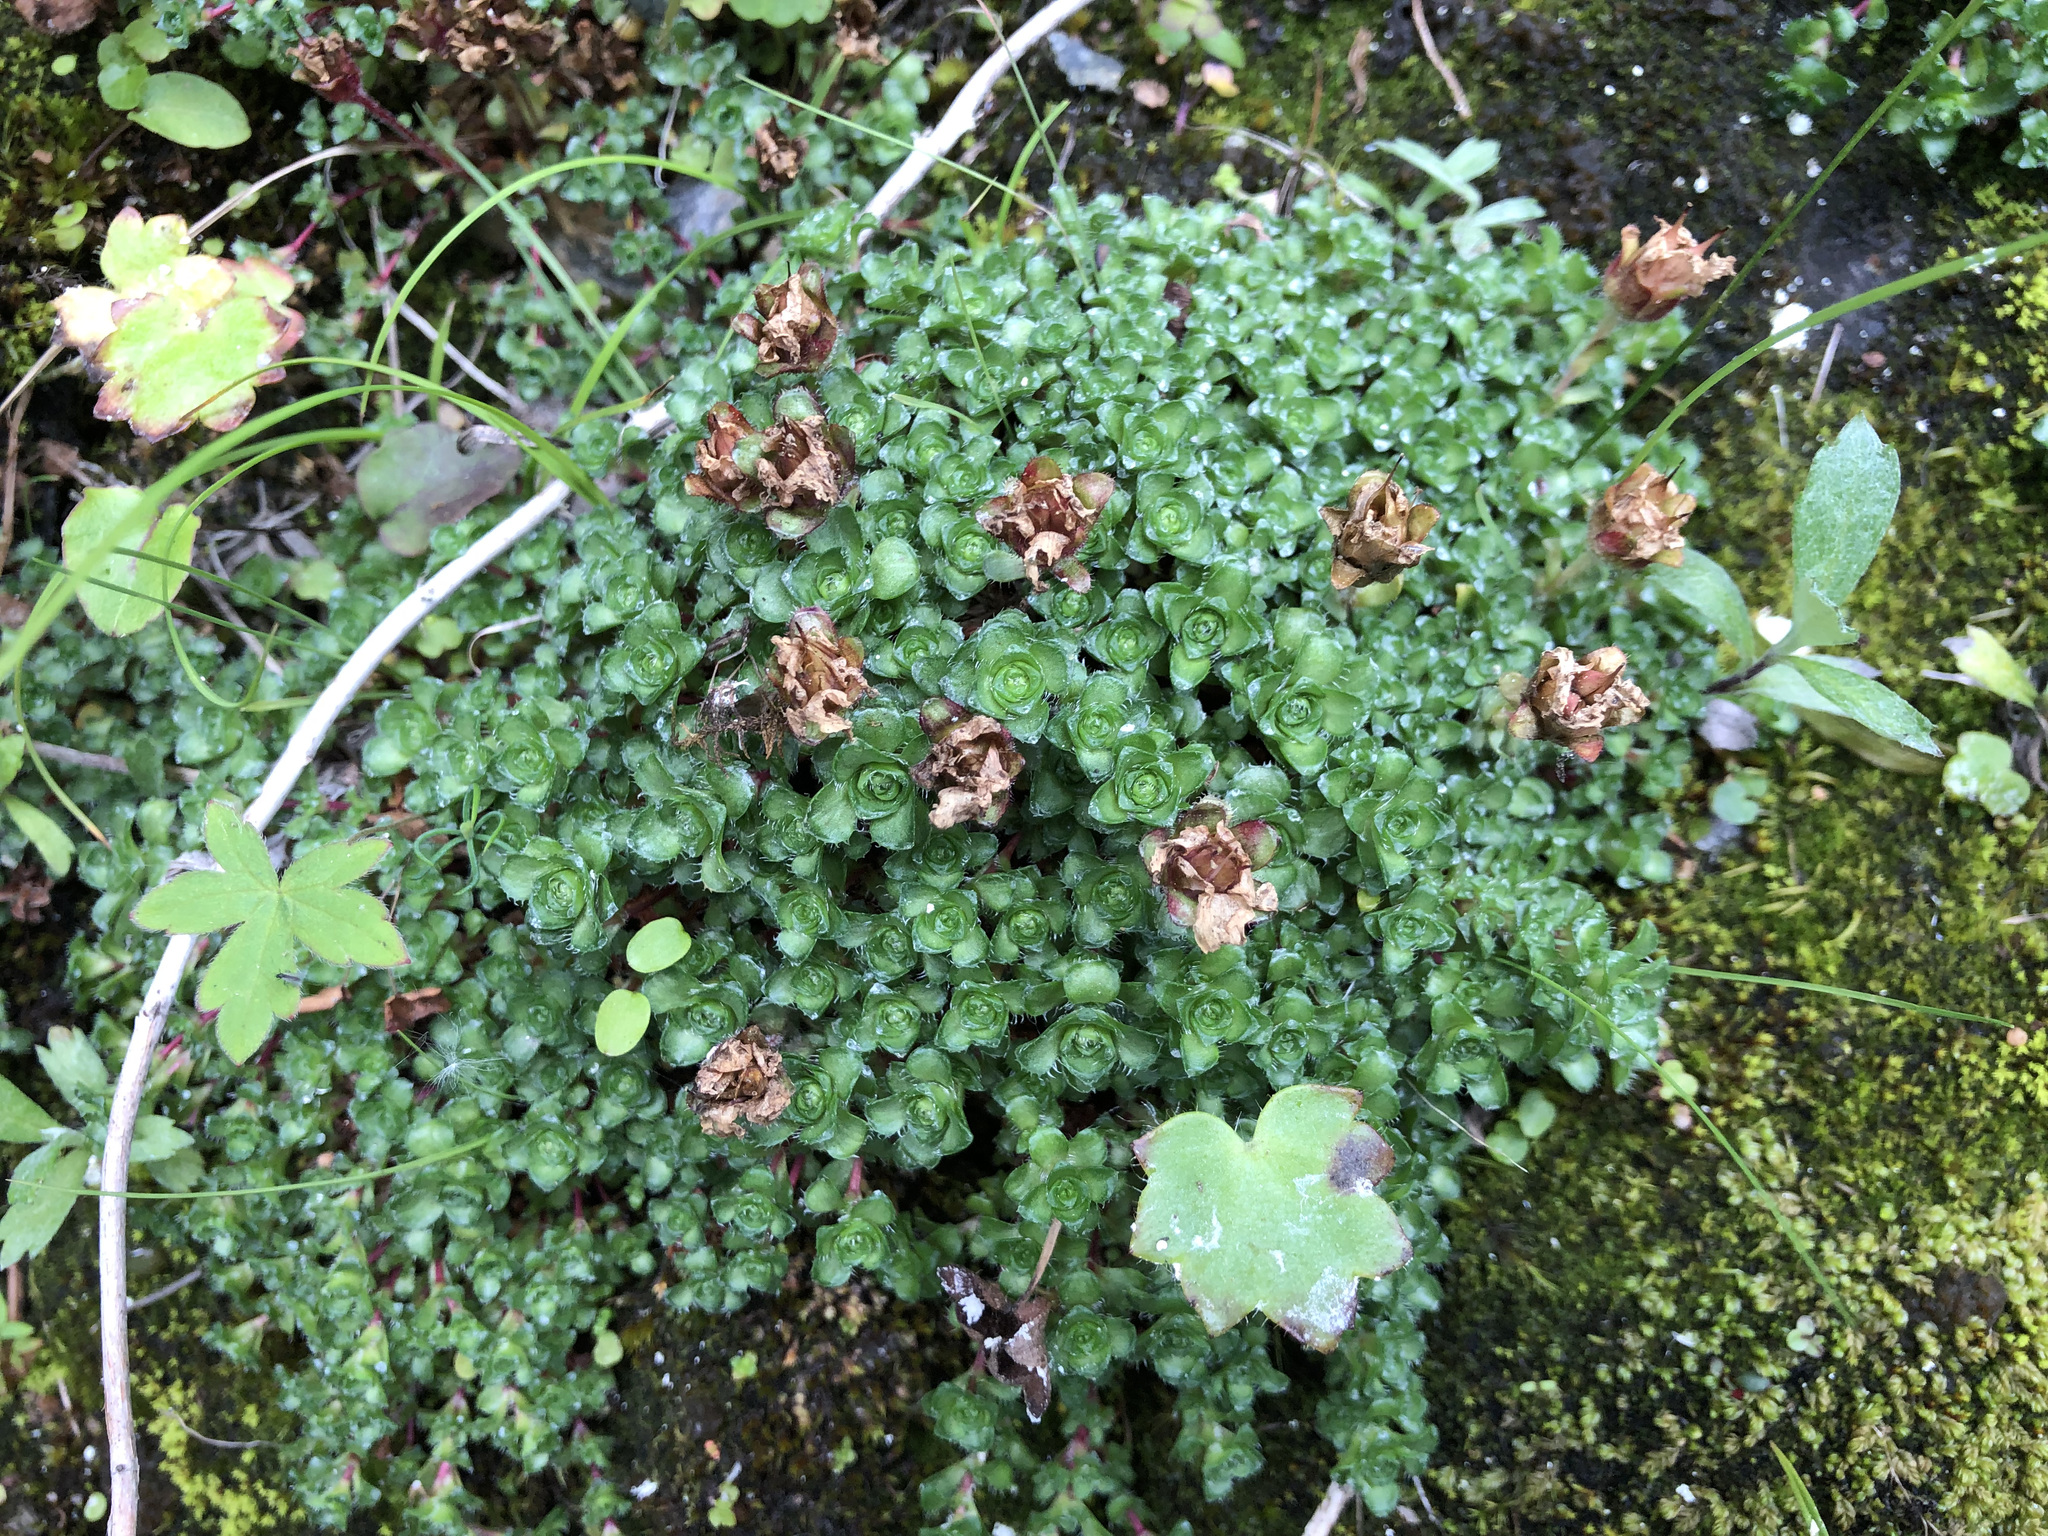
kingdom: Plantae
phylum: Tracheophyta
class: Magnoliopsida
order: Saxifragales
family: Saxifragaceae
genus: Saxifraga
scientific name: Saxifraga oppositifolia
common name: Purple saxifrage
